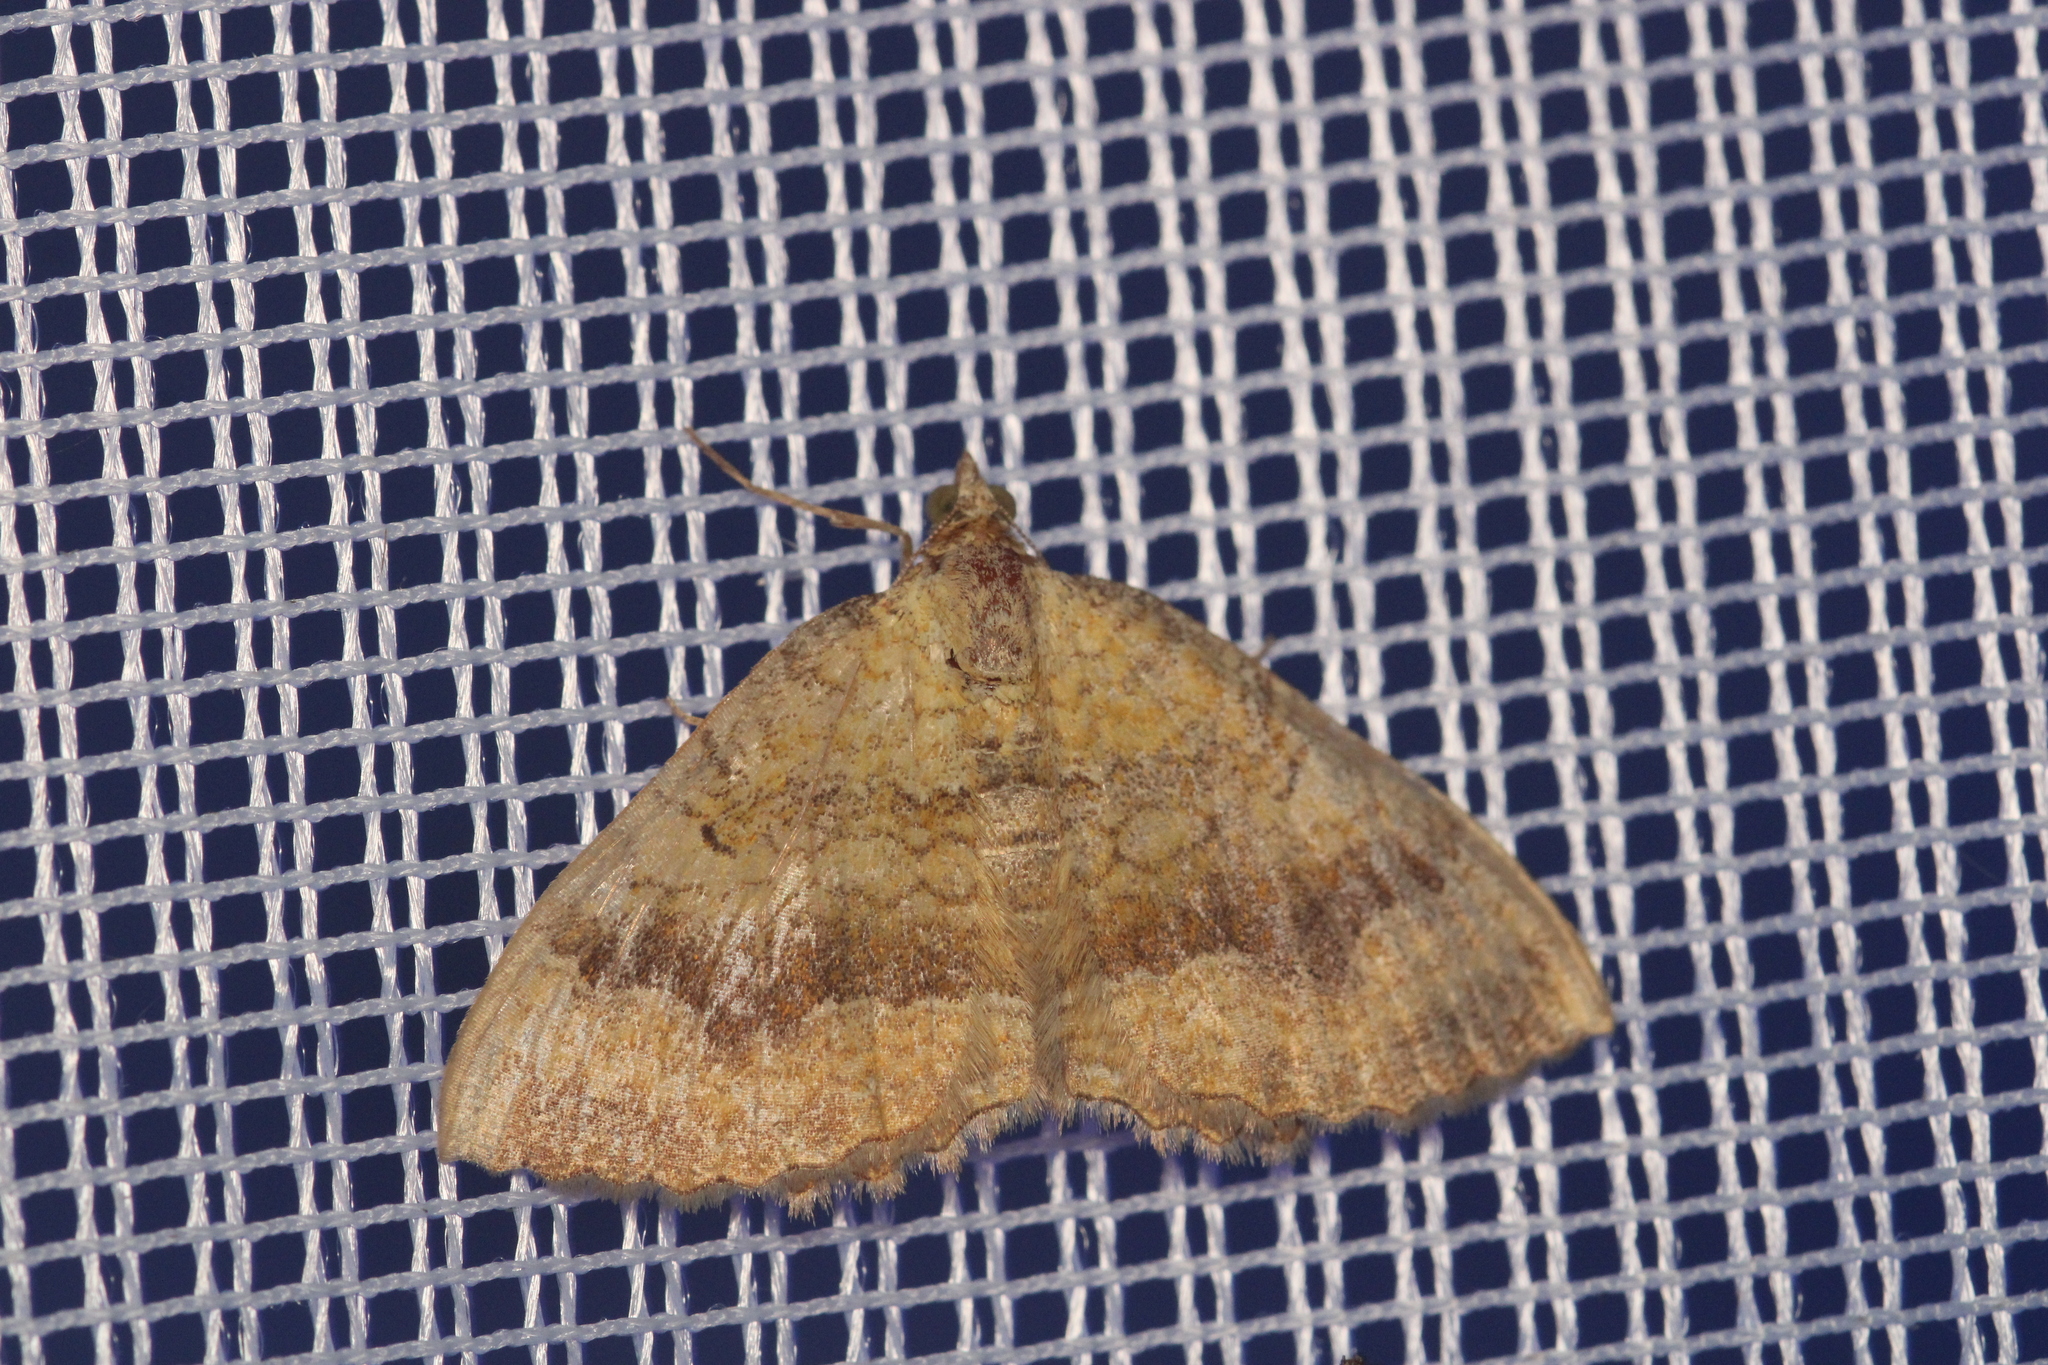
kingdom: Animalia
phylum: Arthropoda
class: Insecta
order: Lepidoptera
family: Geometridae
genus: Camptogramma
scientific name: Camptogramma bilineata
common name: Yellow shell
